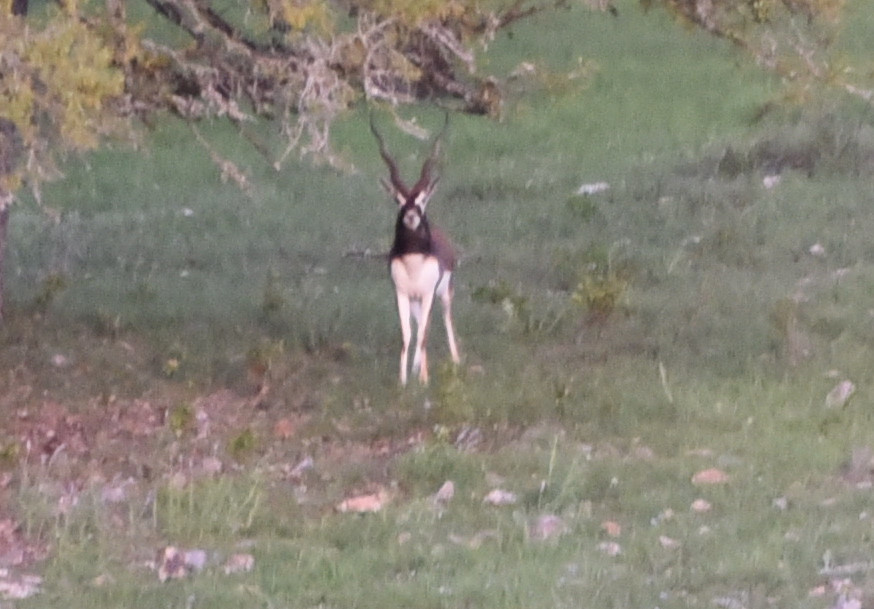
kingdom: Animalia
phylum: Chordata
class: Mammalia
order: Artiodactyla
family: Bovidae
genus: Antilope
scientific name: Antilope cervicapra
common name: Blackbuck
